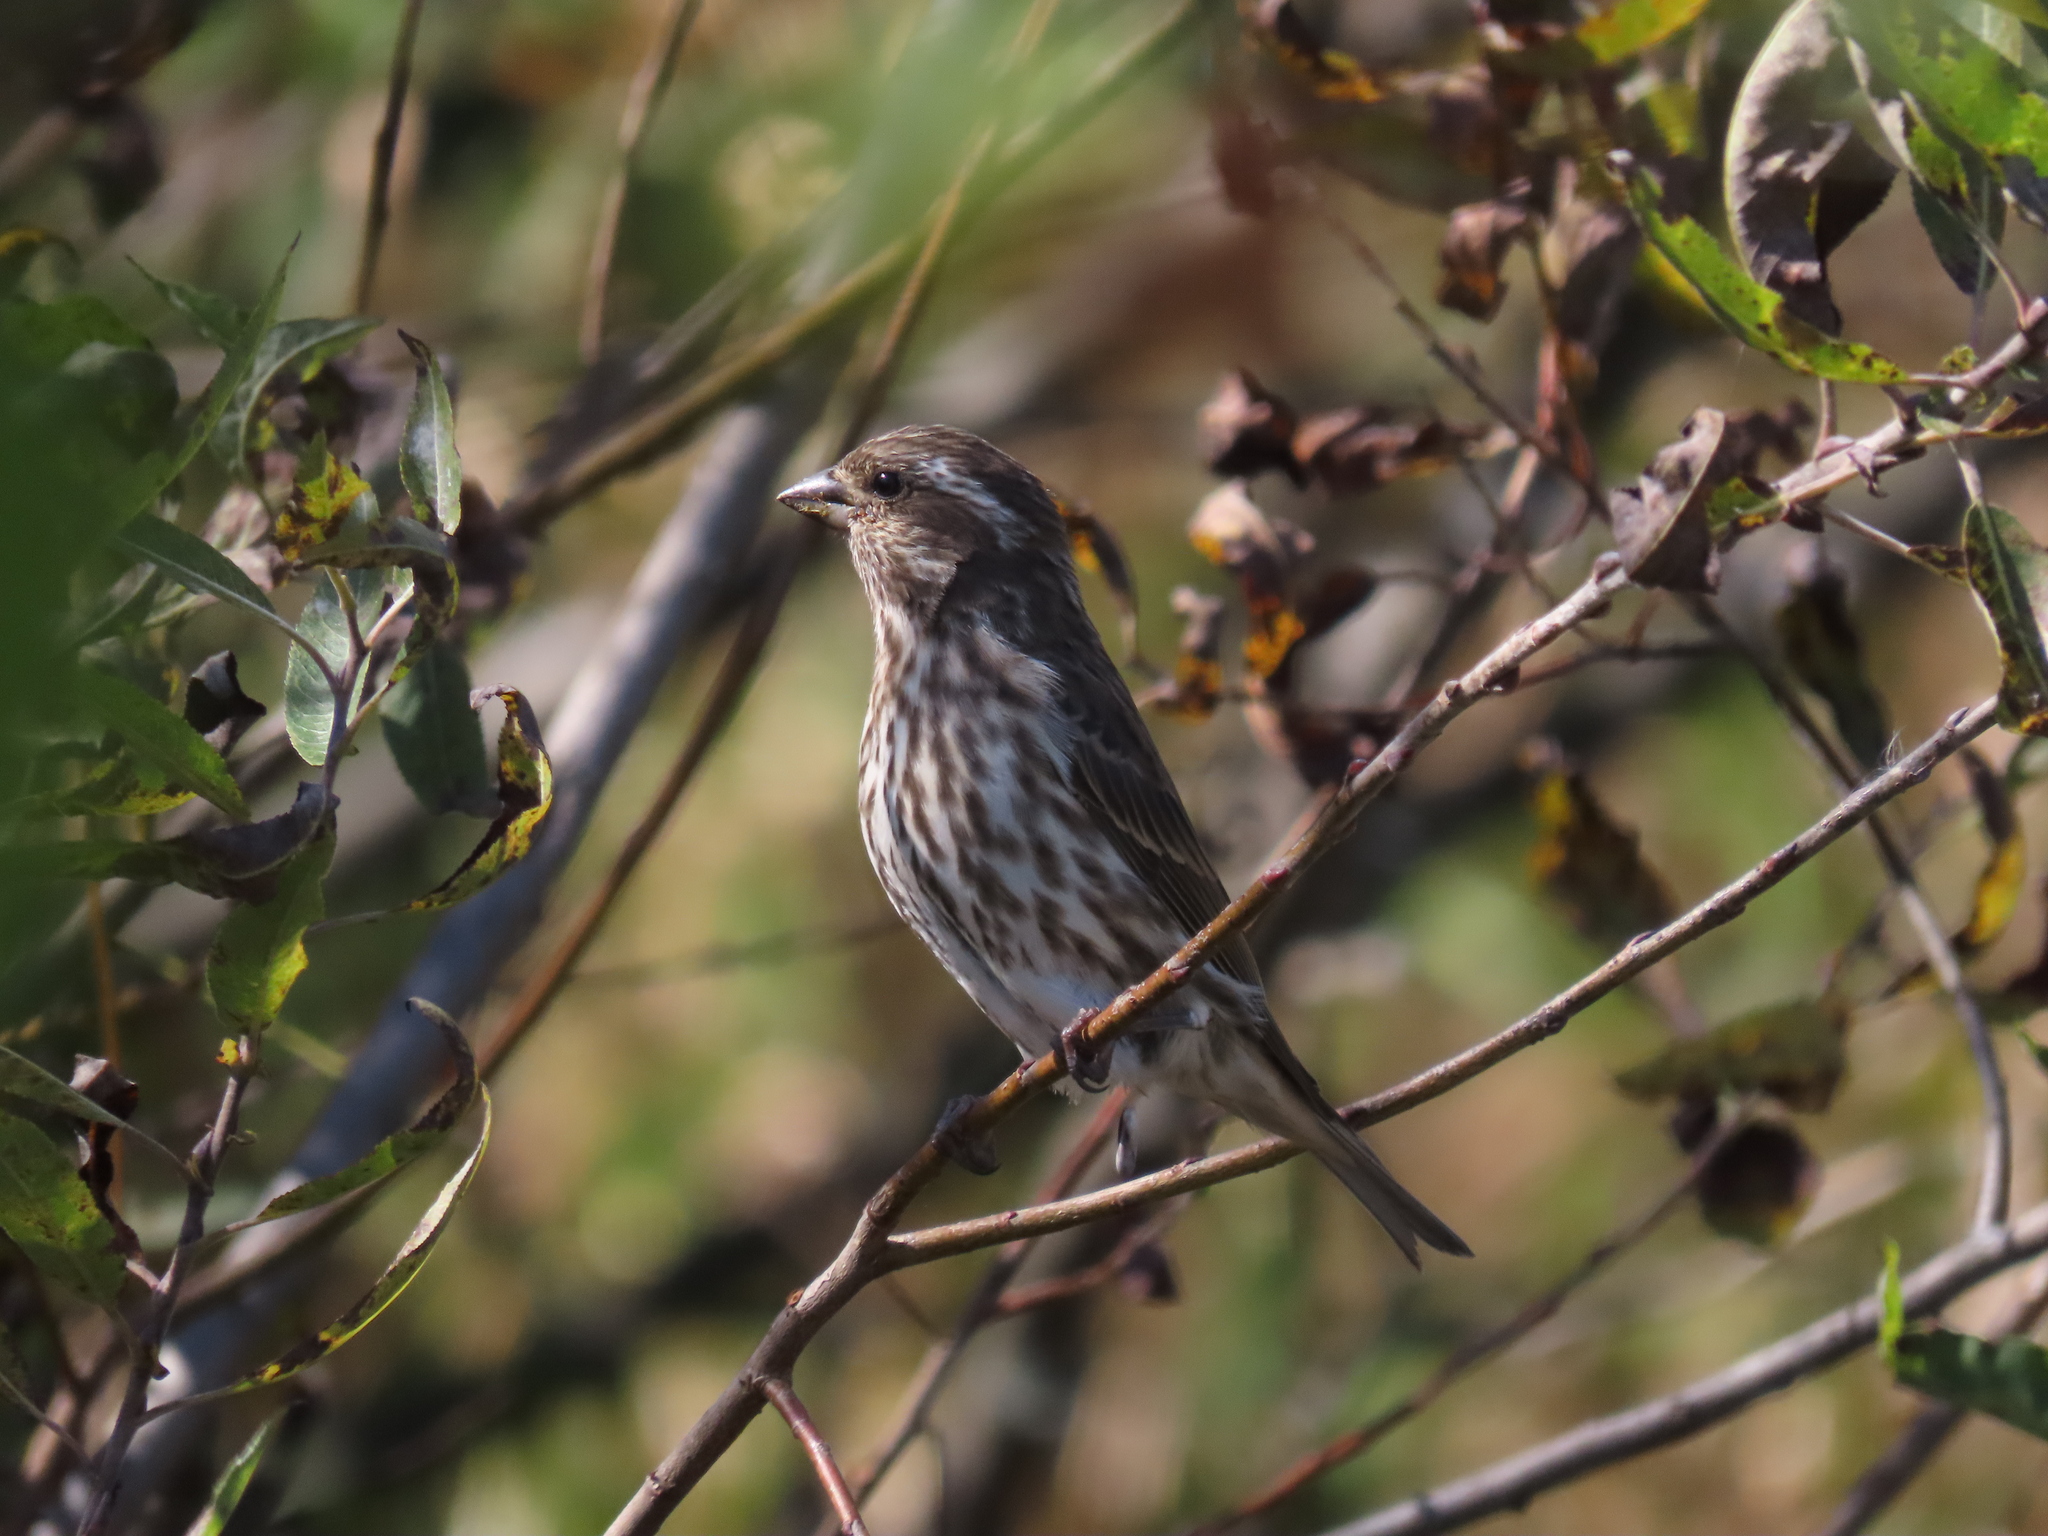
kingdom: Animalia
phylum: Chordata
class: Aves
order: Passeriformes
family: Fringillidae
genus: Haemorhous
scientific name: Haemorhous purpureus
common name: Purple finch
